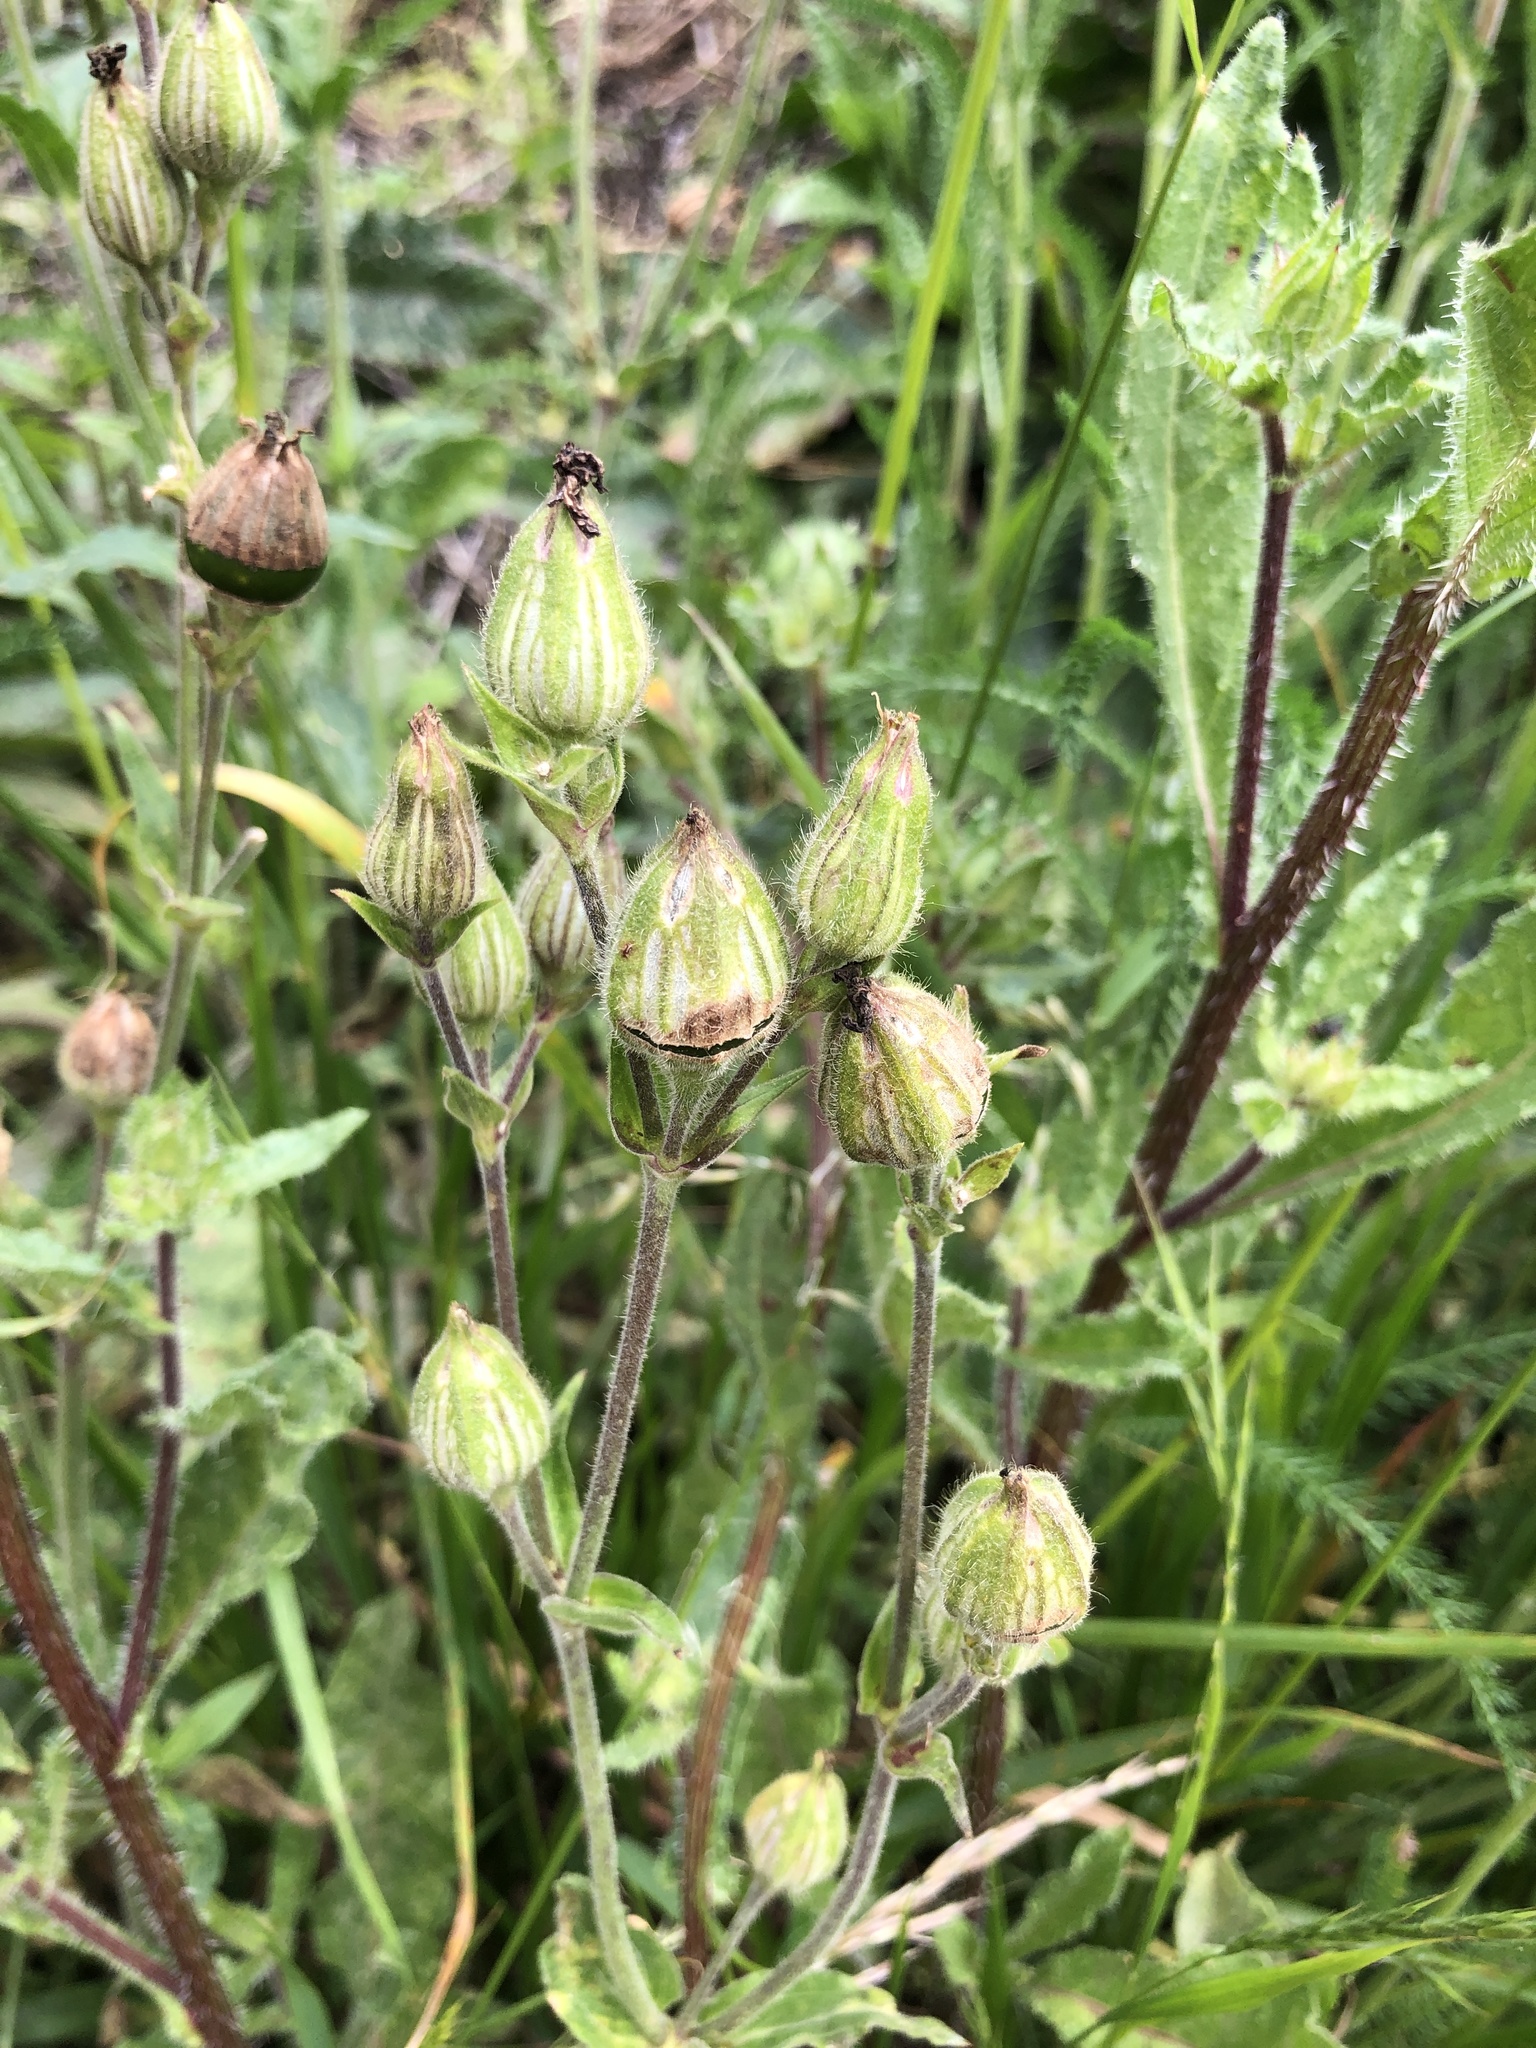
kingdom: Plantae
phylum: Tracheophyta
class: Magnoliopsida
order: Caryophyllales
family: Caryophyllaceae
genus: Silene
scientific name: Silene latifolia
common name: White campion
